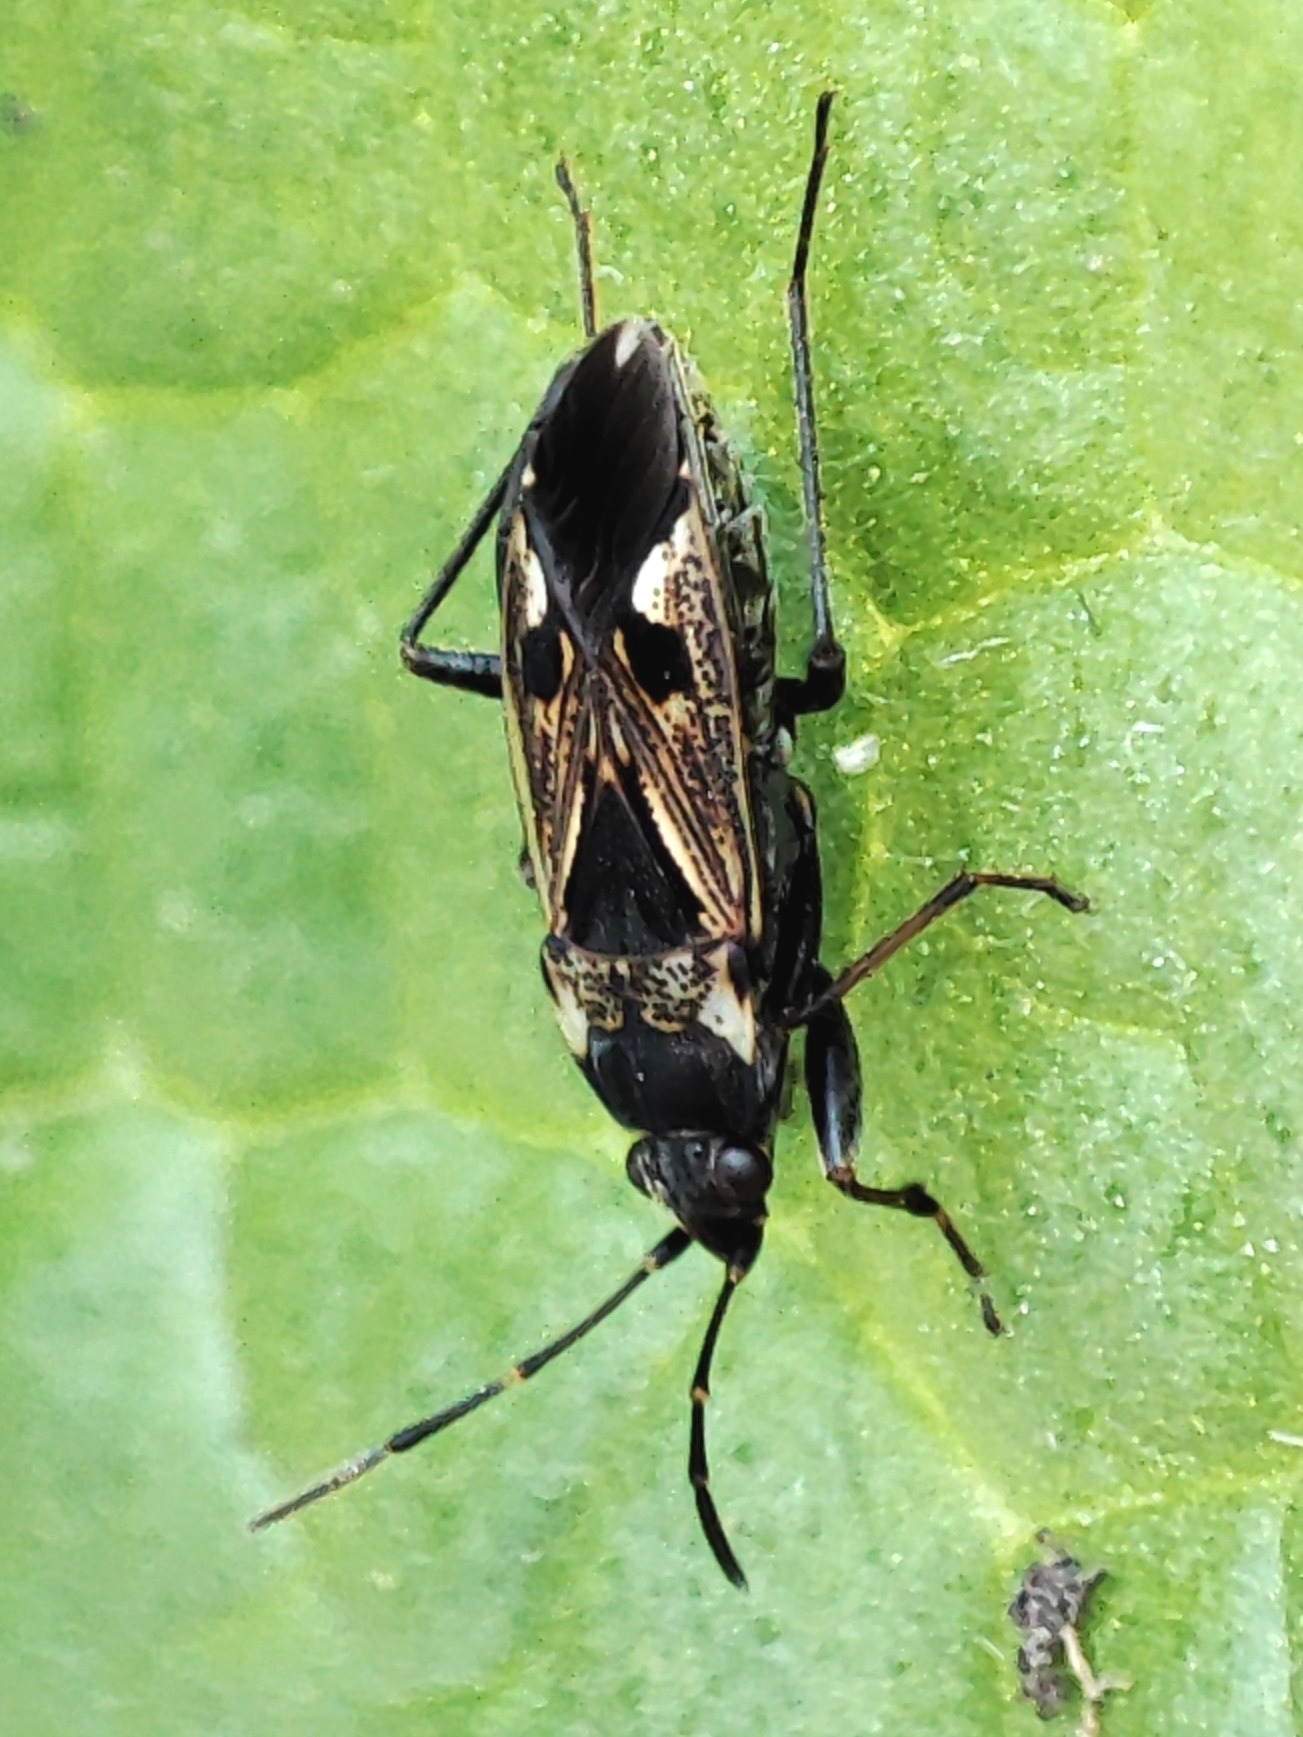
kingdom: Animalia
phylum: Arthropoda
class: Insecta
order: Hemiptera
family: Rhyparochromidae
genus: Rhyparochromus
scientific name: Rhyparochromus vulgaris
